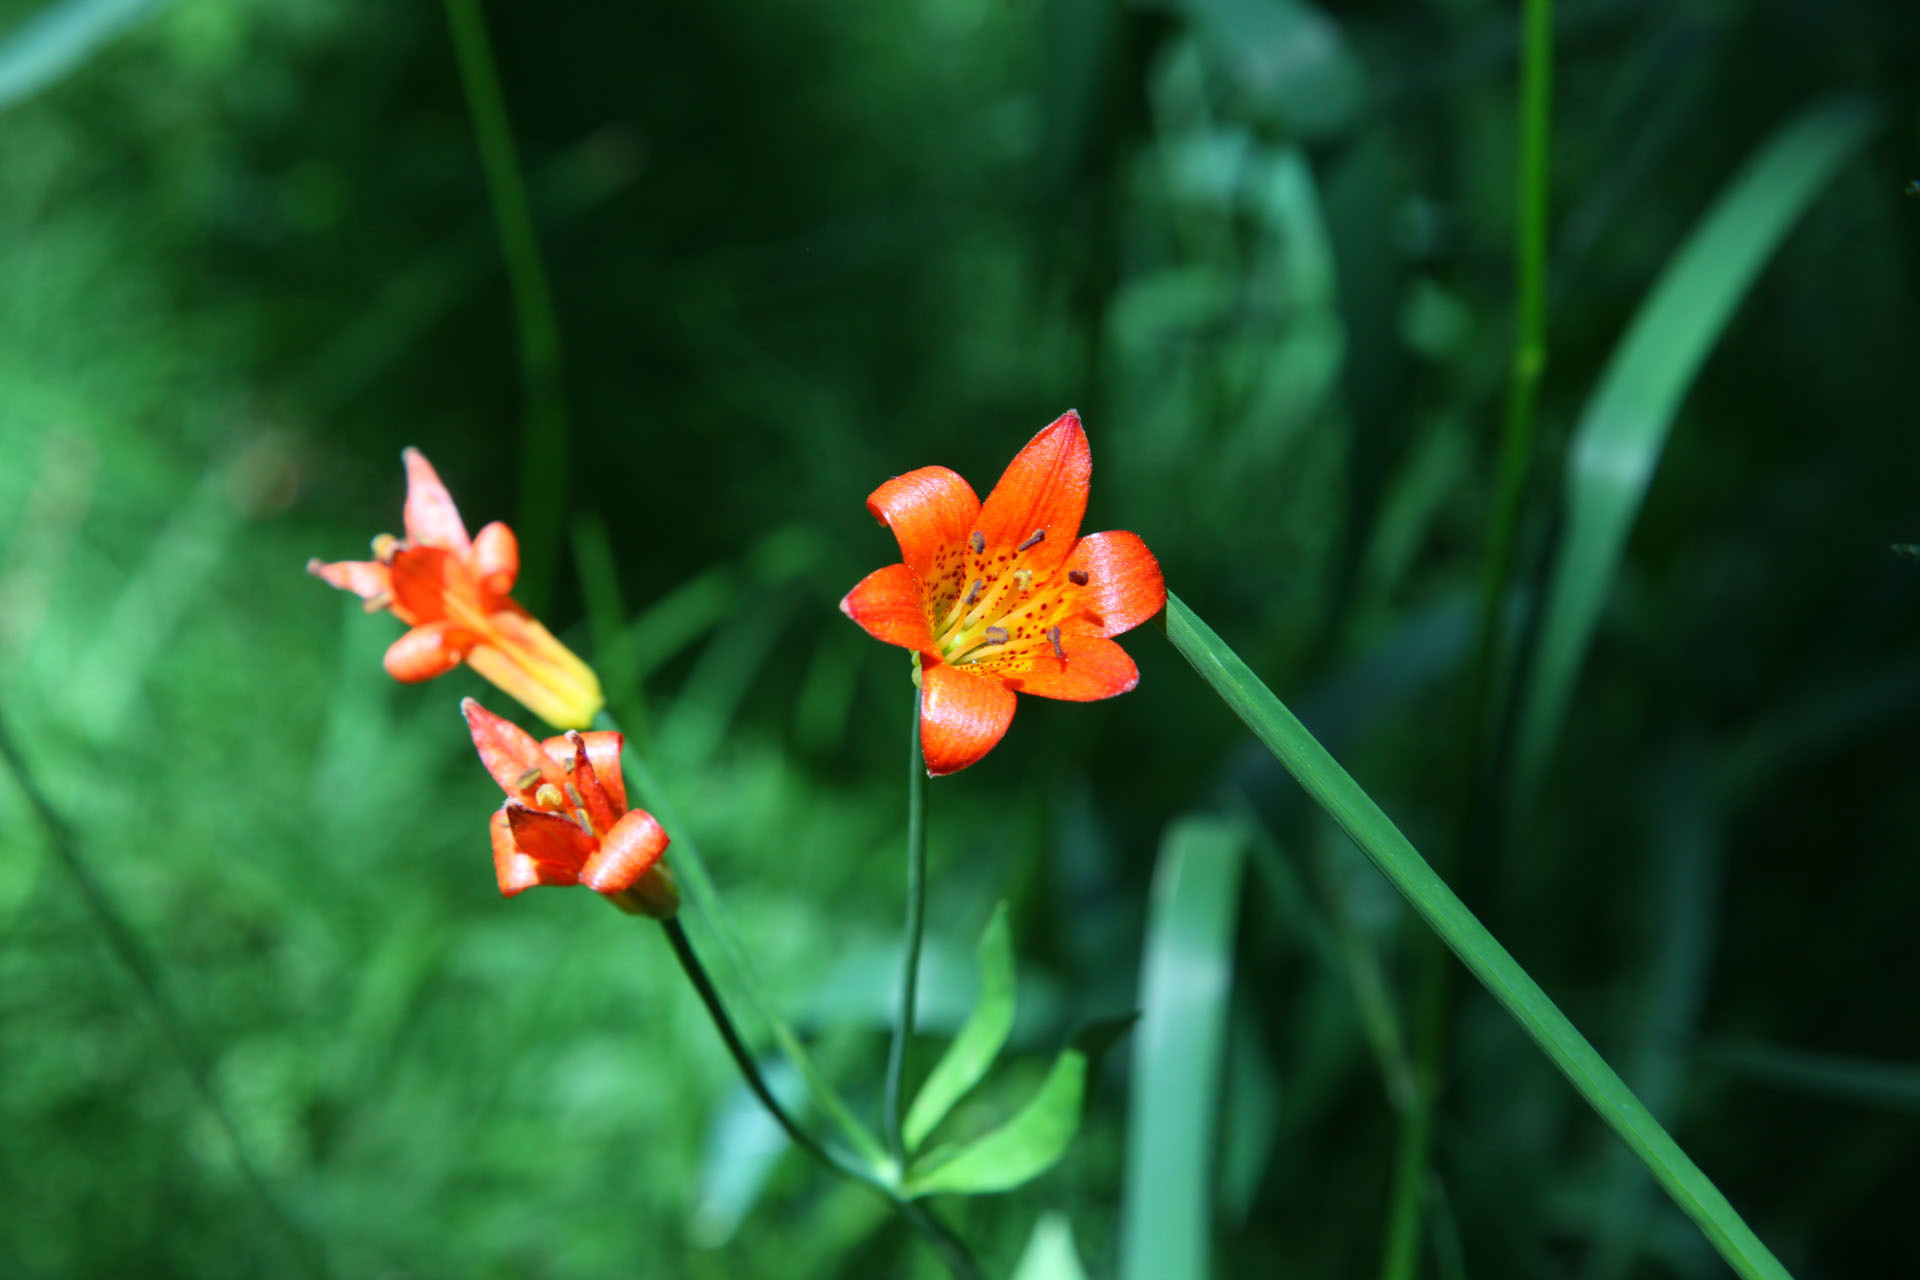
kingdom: Plantae
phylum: Tracheophyta
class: Liliopsida
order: Liliales
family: Liliaceae
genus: Lilium
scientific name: Lilium parvum
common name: Alpine lily
